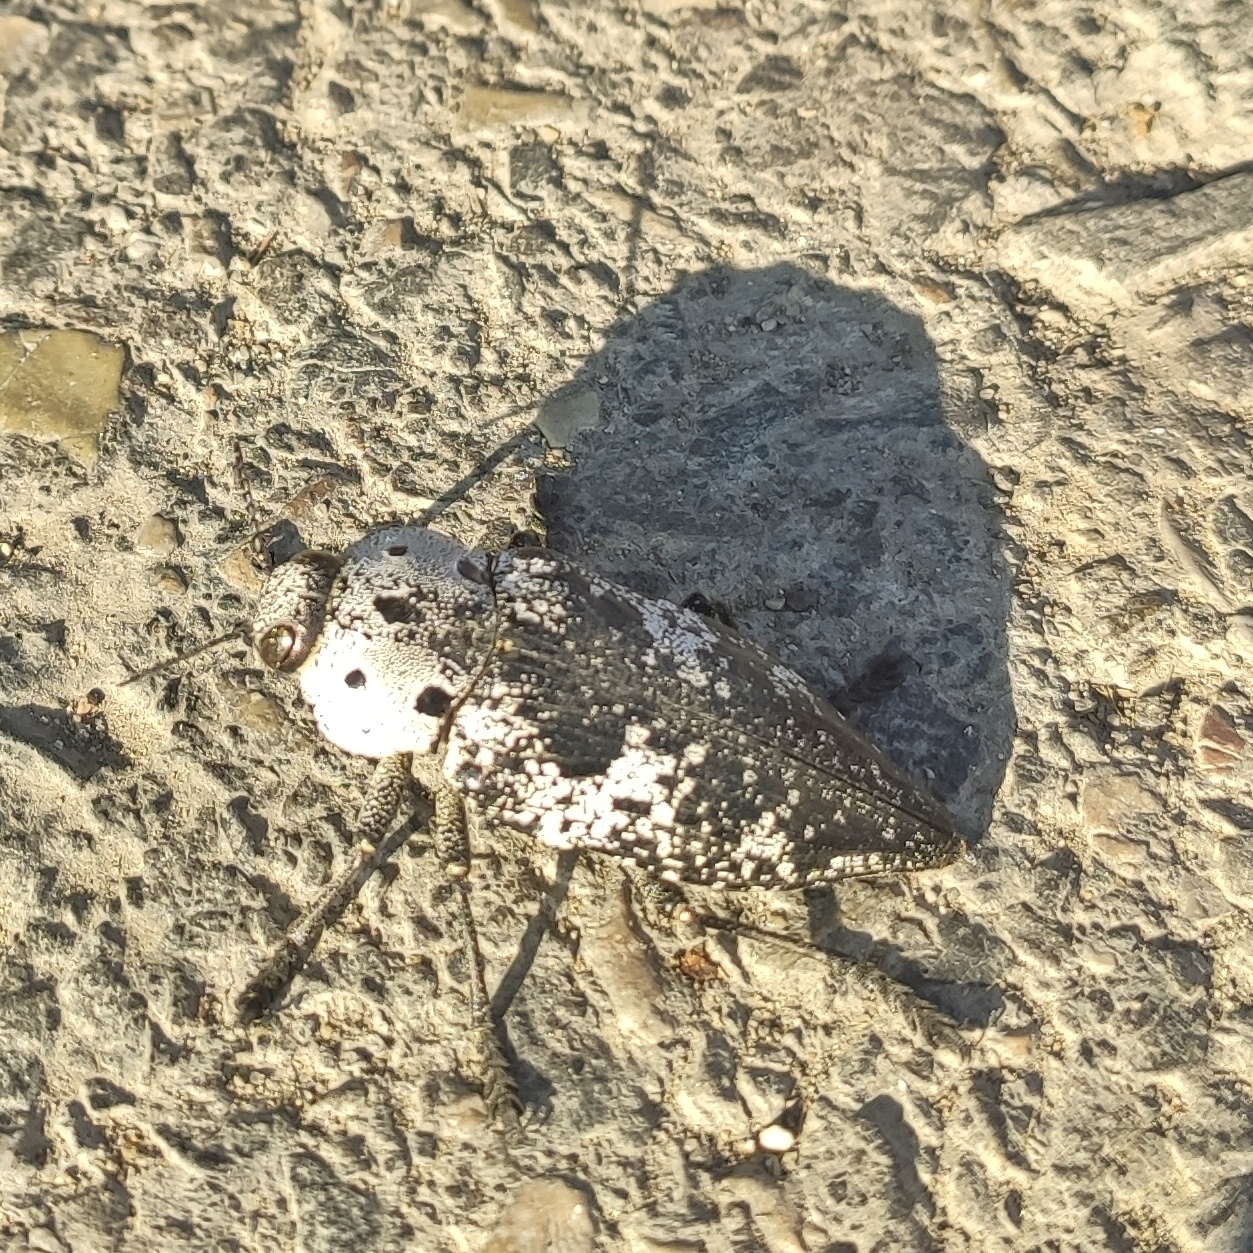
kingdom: Animalia
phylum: Arthropoda
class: Insecta
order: Coleoptera
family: Buprestidae
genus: Capnodis
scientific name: Capnodis miliaris
